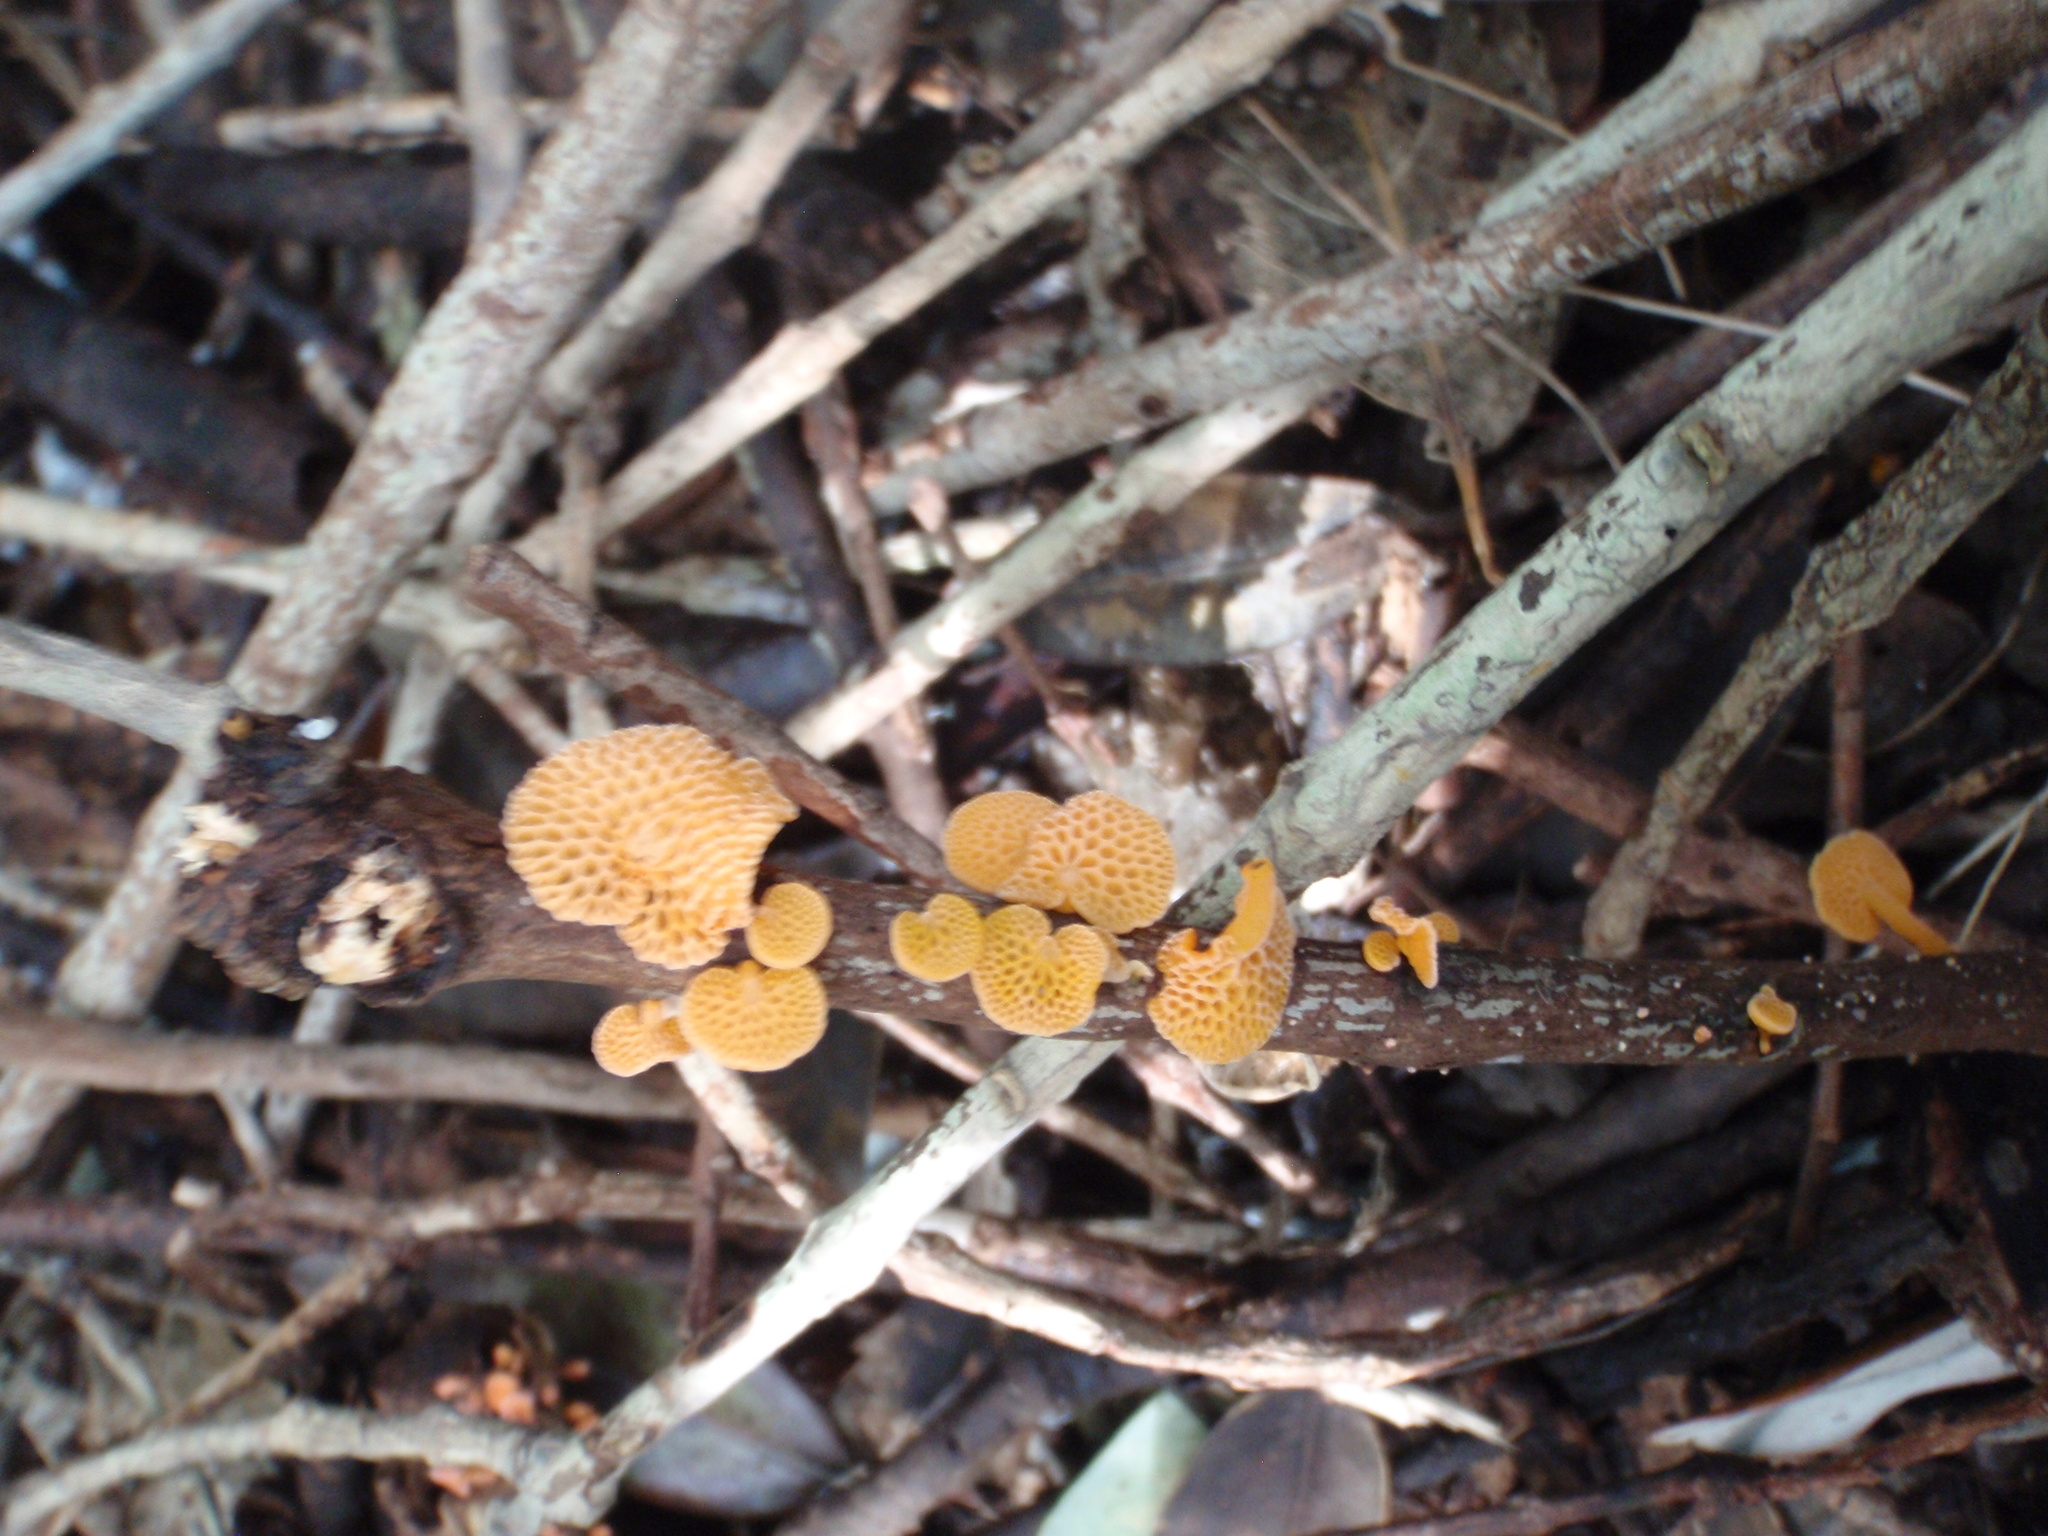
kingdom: Fungi
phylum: Basidiomycota
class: Agaricomycetes
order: Agaricales
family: Mycenaceae
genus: Favolaschia
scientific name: Favolaschia claudopus
